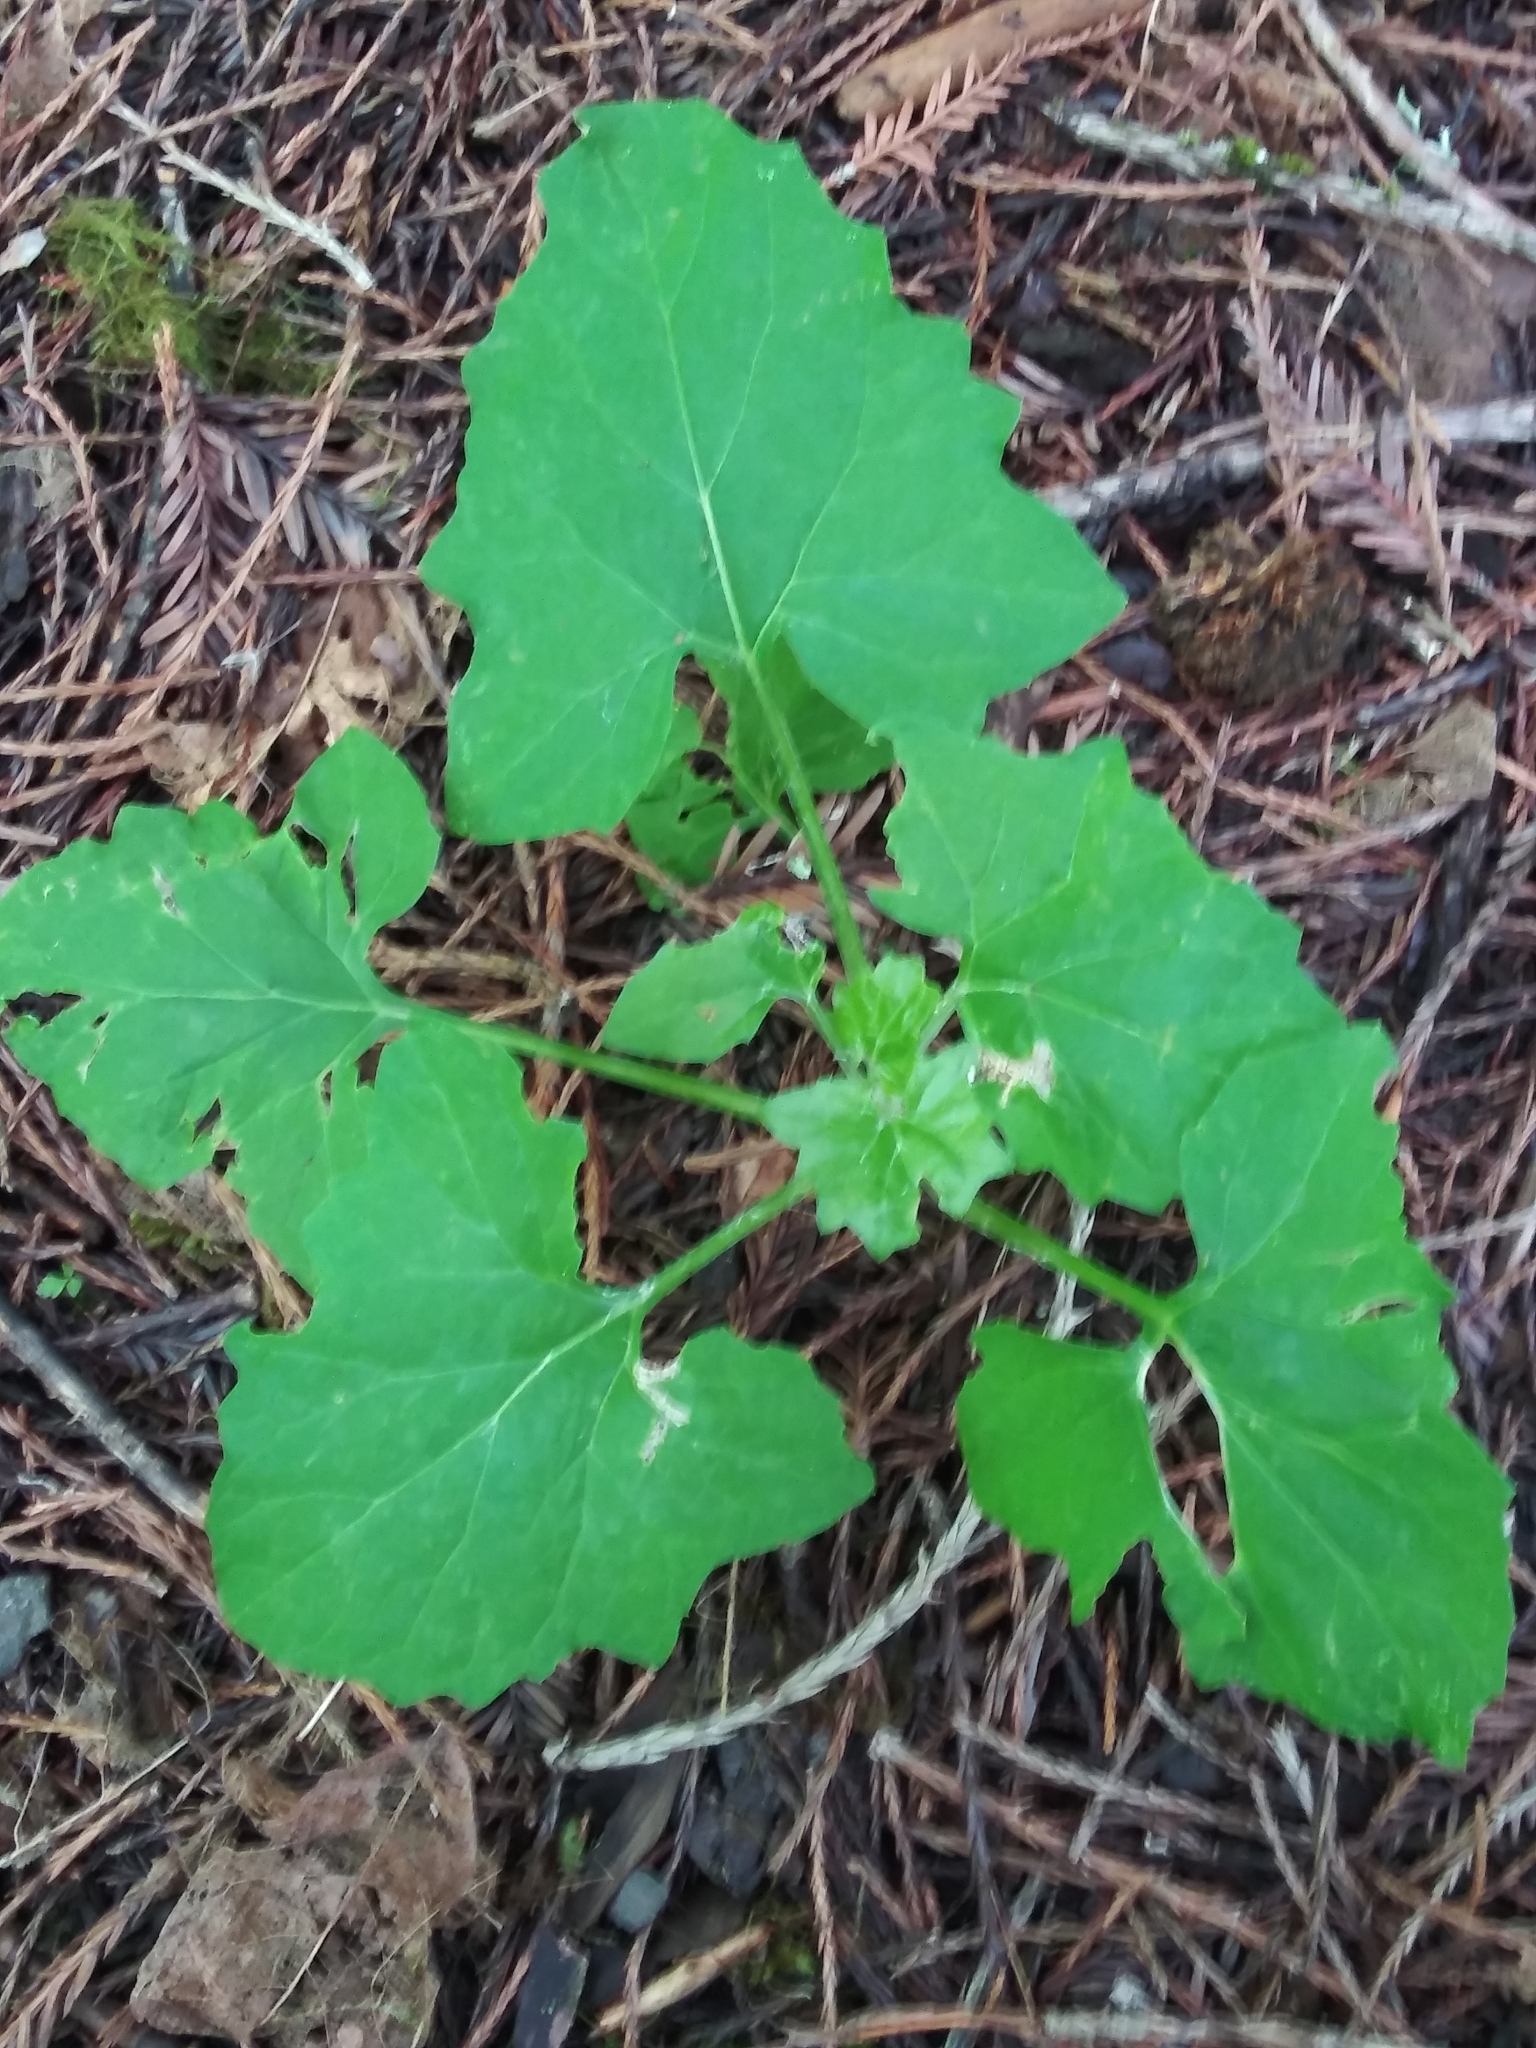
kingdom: Plantae
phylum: Tracheophyta
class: Magnoliopsida
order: Asterales
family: Asteraceae
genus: Adenocaulon
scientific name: Adenocaulon bicolor
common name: Trailplant
